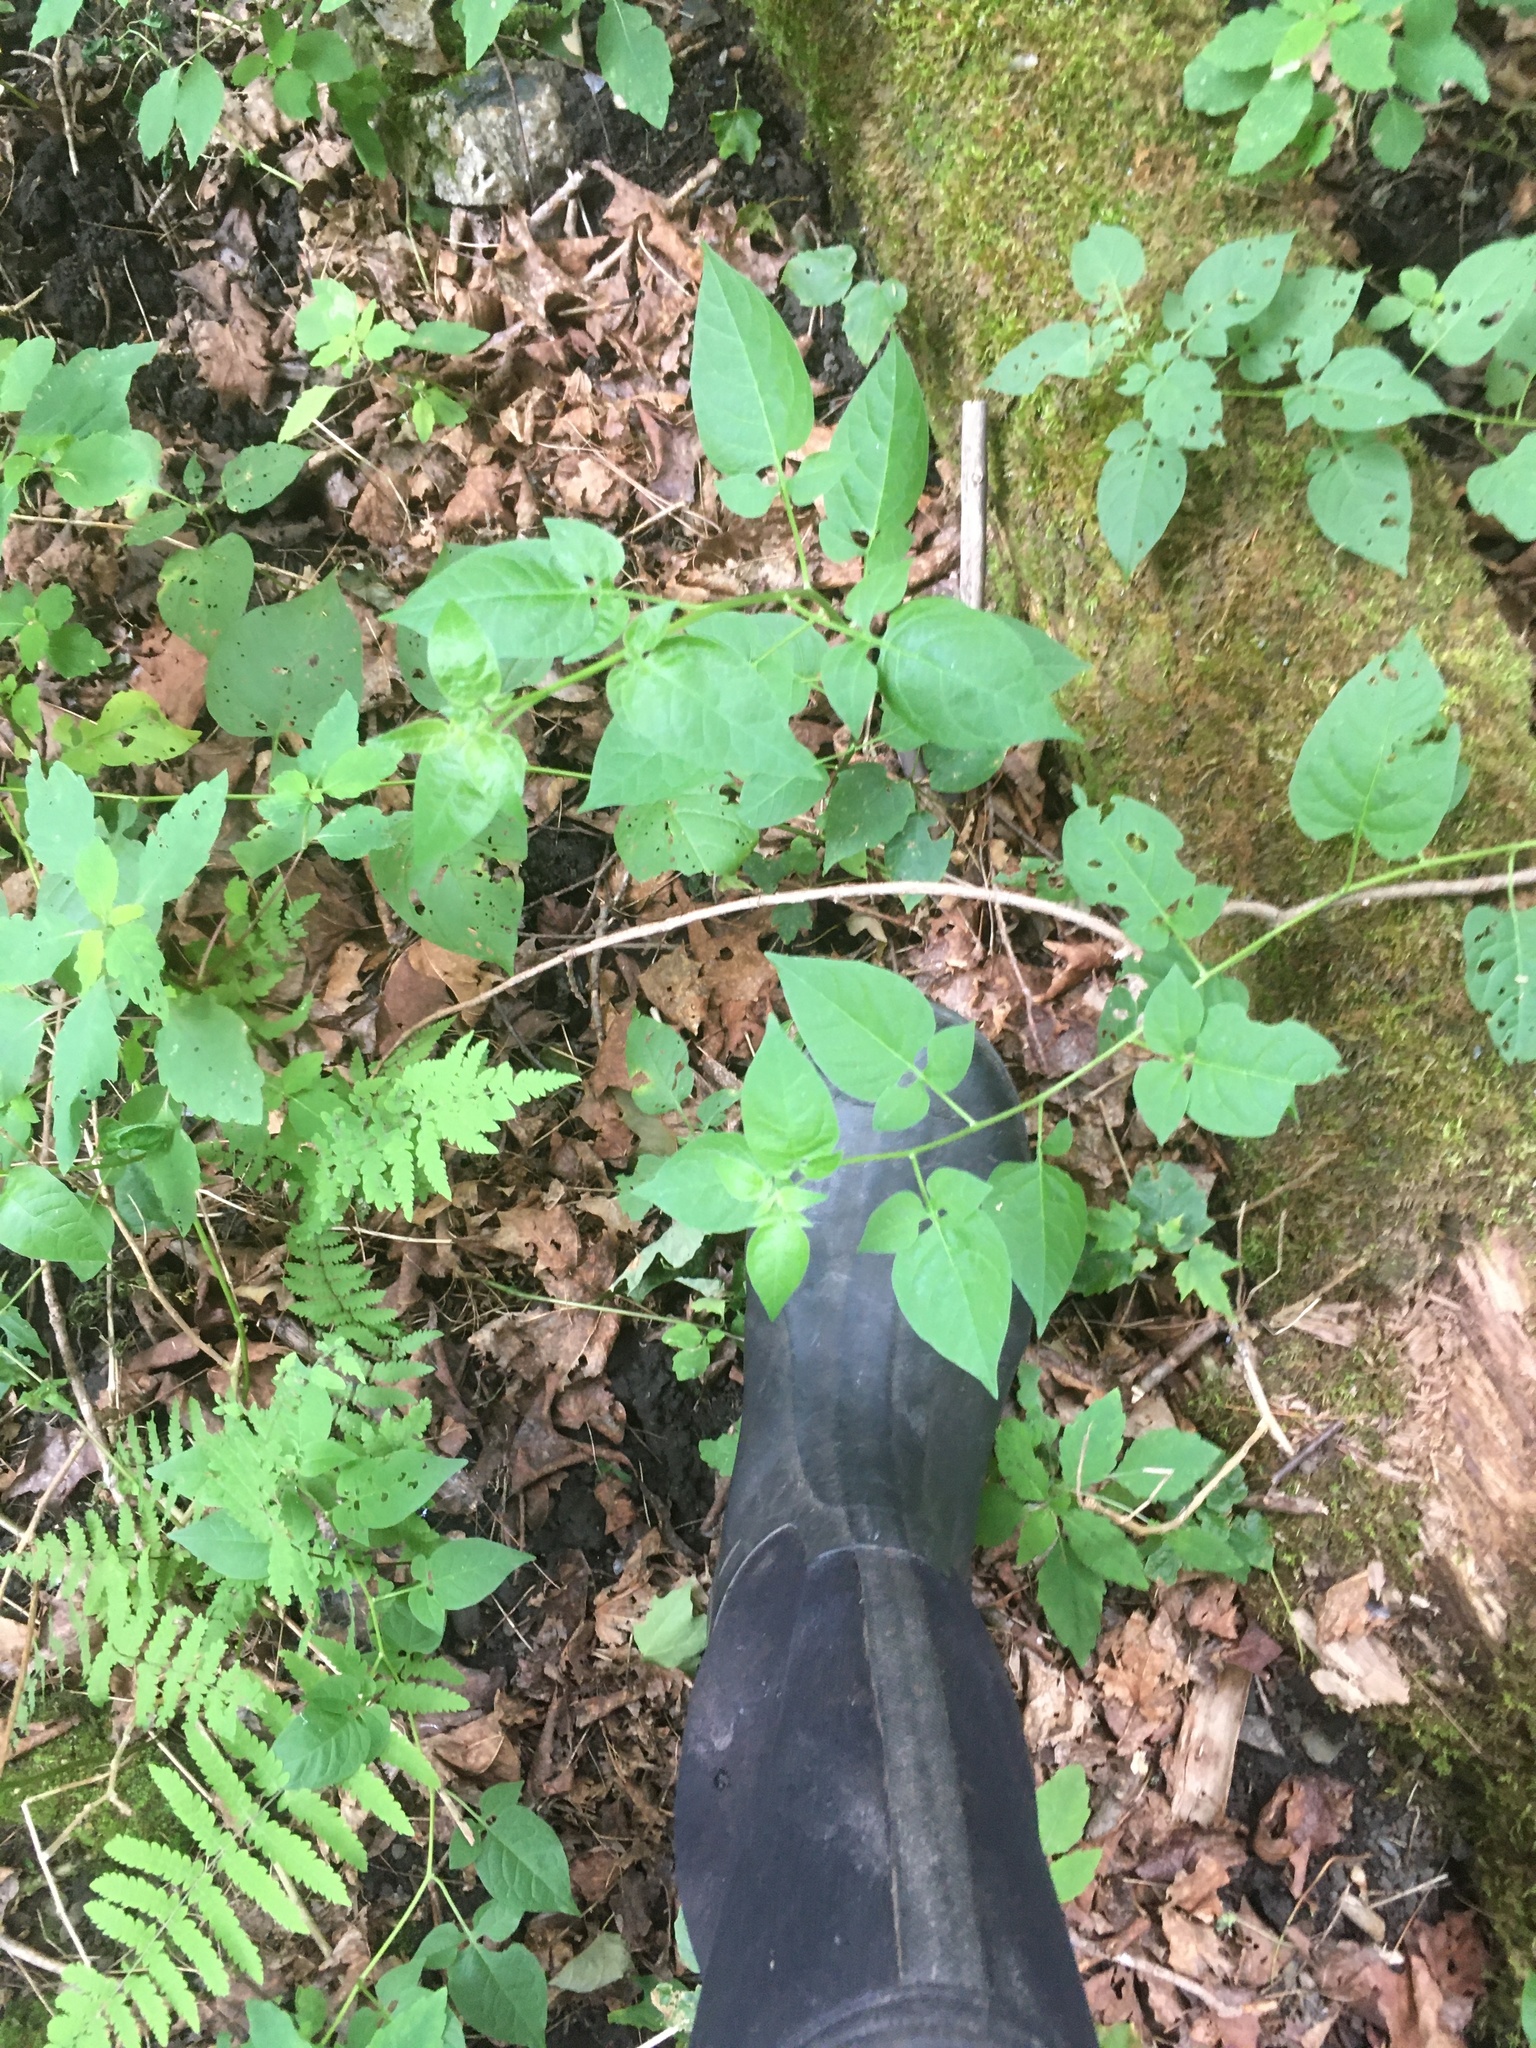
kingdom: Plantae
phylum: Tracheophyta
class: Magnoliopsida
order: Solanales
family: Solanaceae
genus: Solanum
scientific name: Solanum dulcamara
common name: Climbing nightshade
